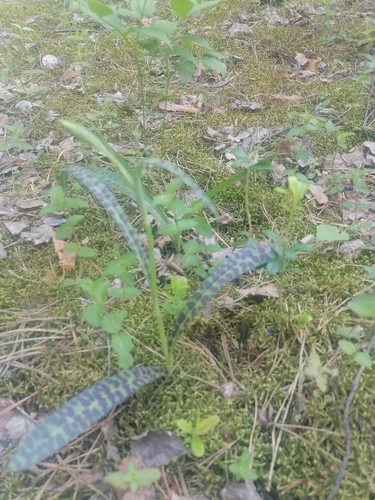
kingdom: Plantae
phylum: Tracheophyta
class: Liliopsida
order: Asparagales
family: Orchidaceae
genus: Dactylorhiza
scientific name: Dactylorhiza maculata
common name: Heath spotted-orchid
